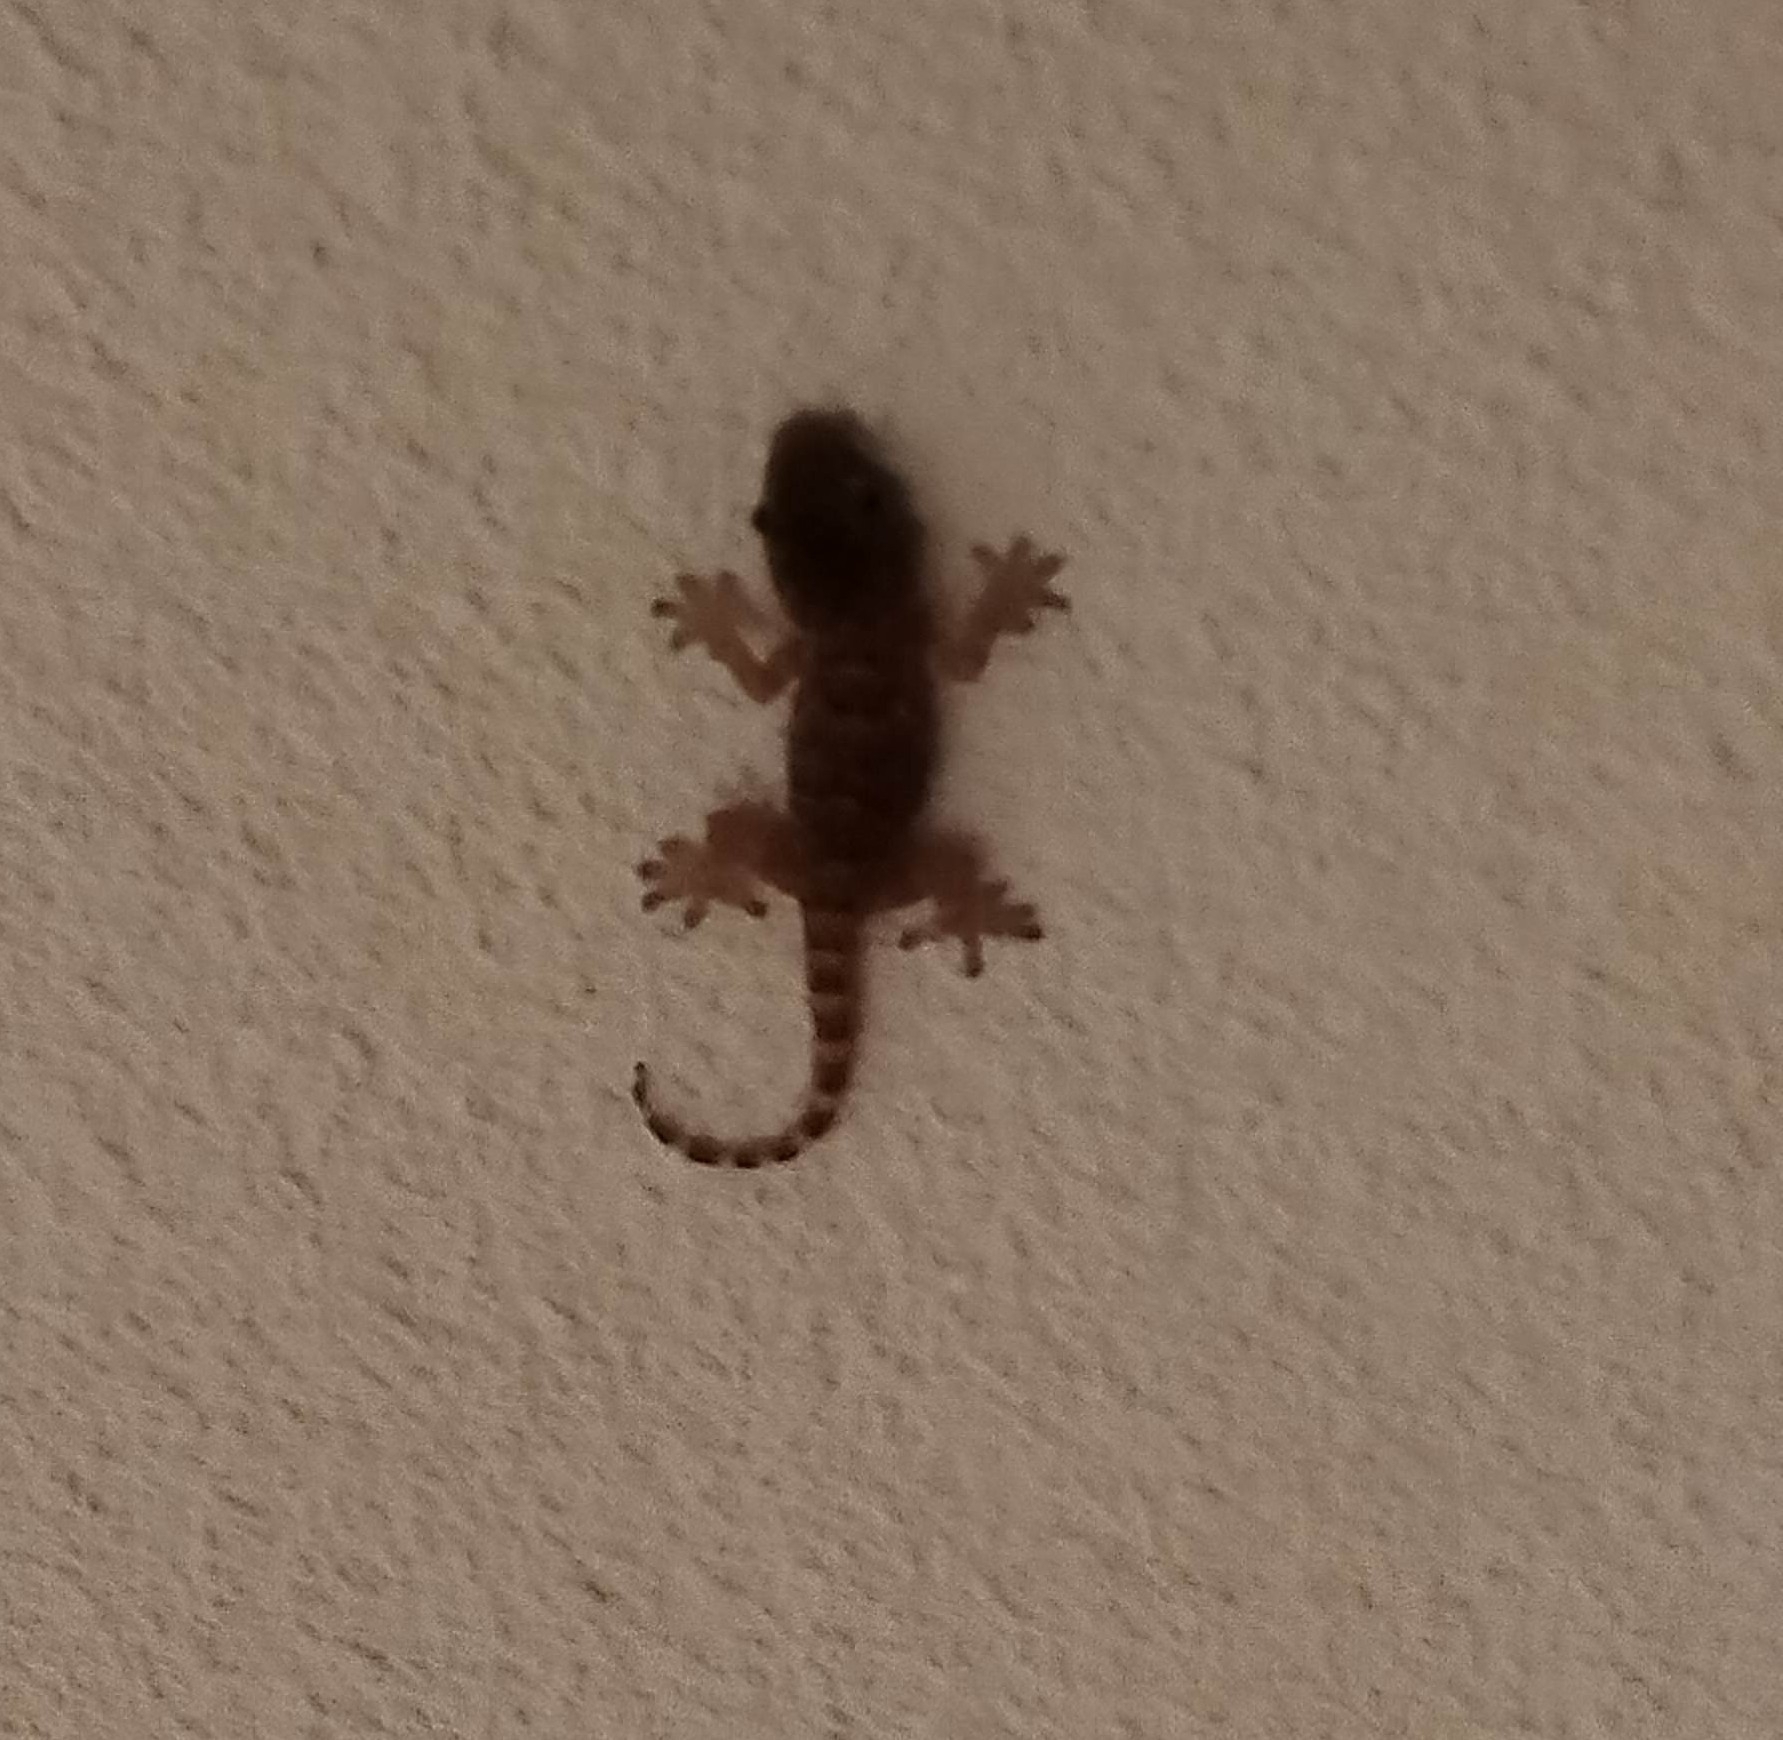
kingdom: Animalia
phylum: Chordata
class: Squamata
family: Phyllodactylidae
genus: Tarentola
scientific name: Tarentola mauritanica
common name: Moorish gecko
